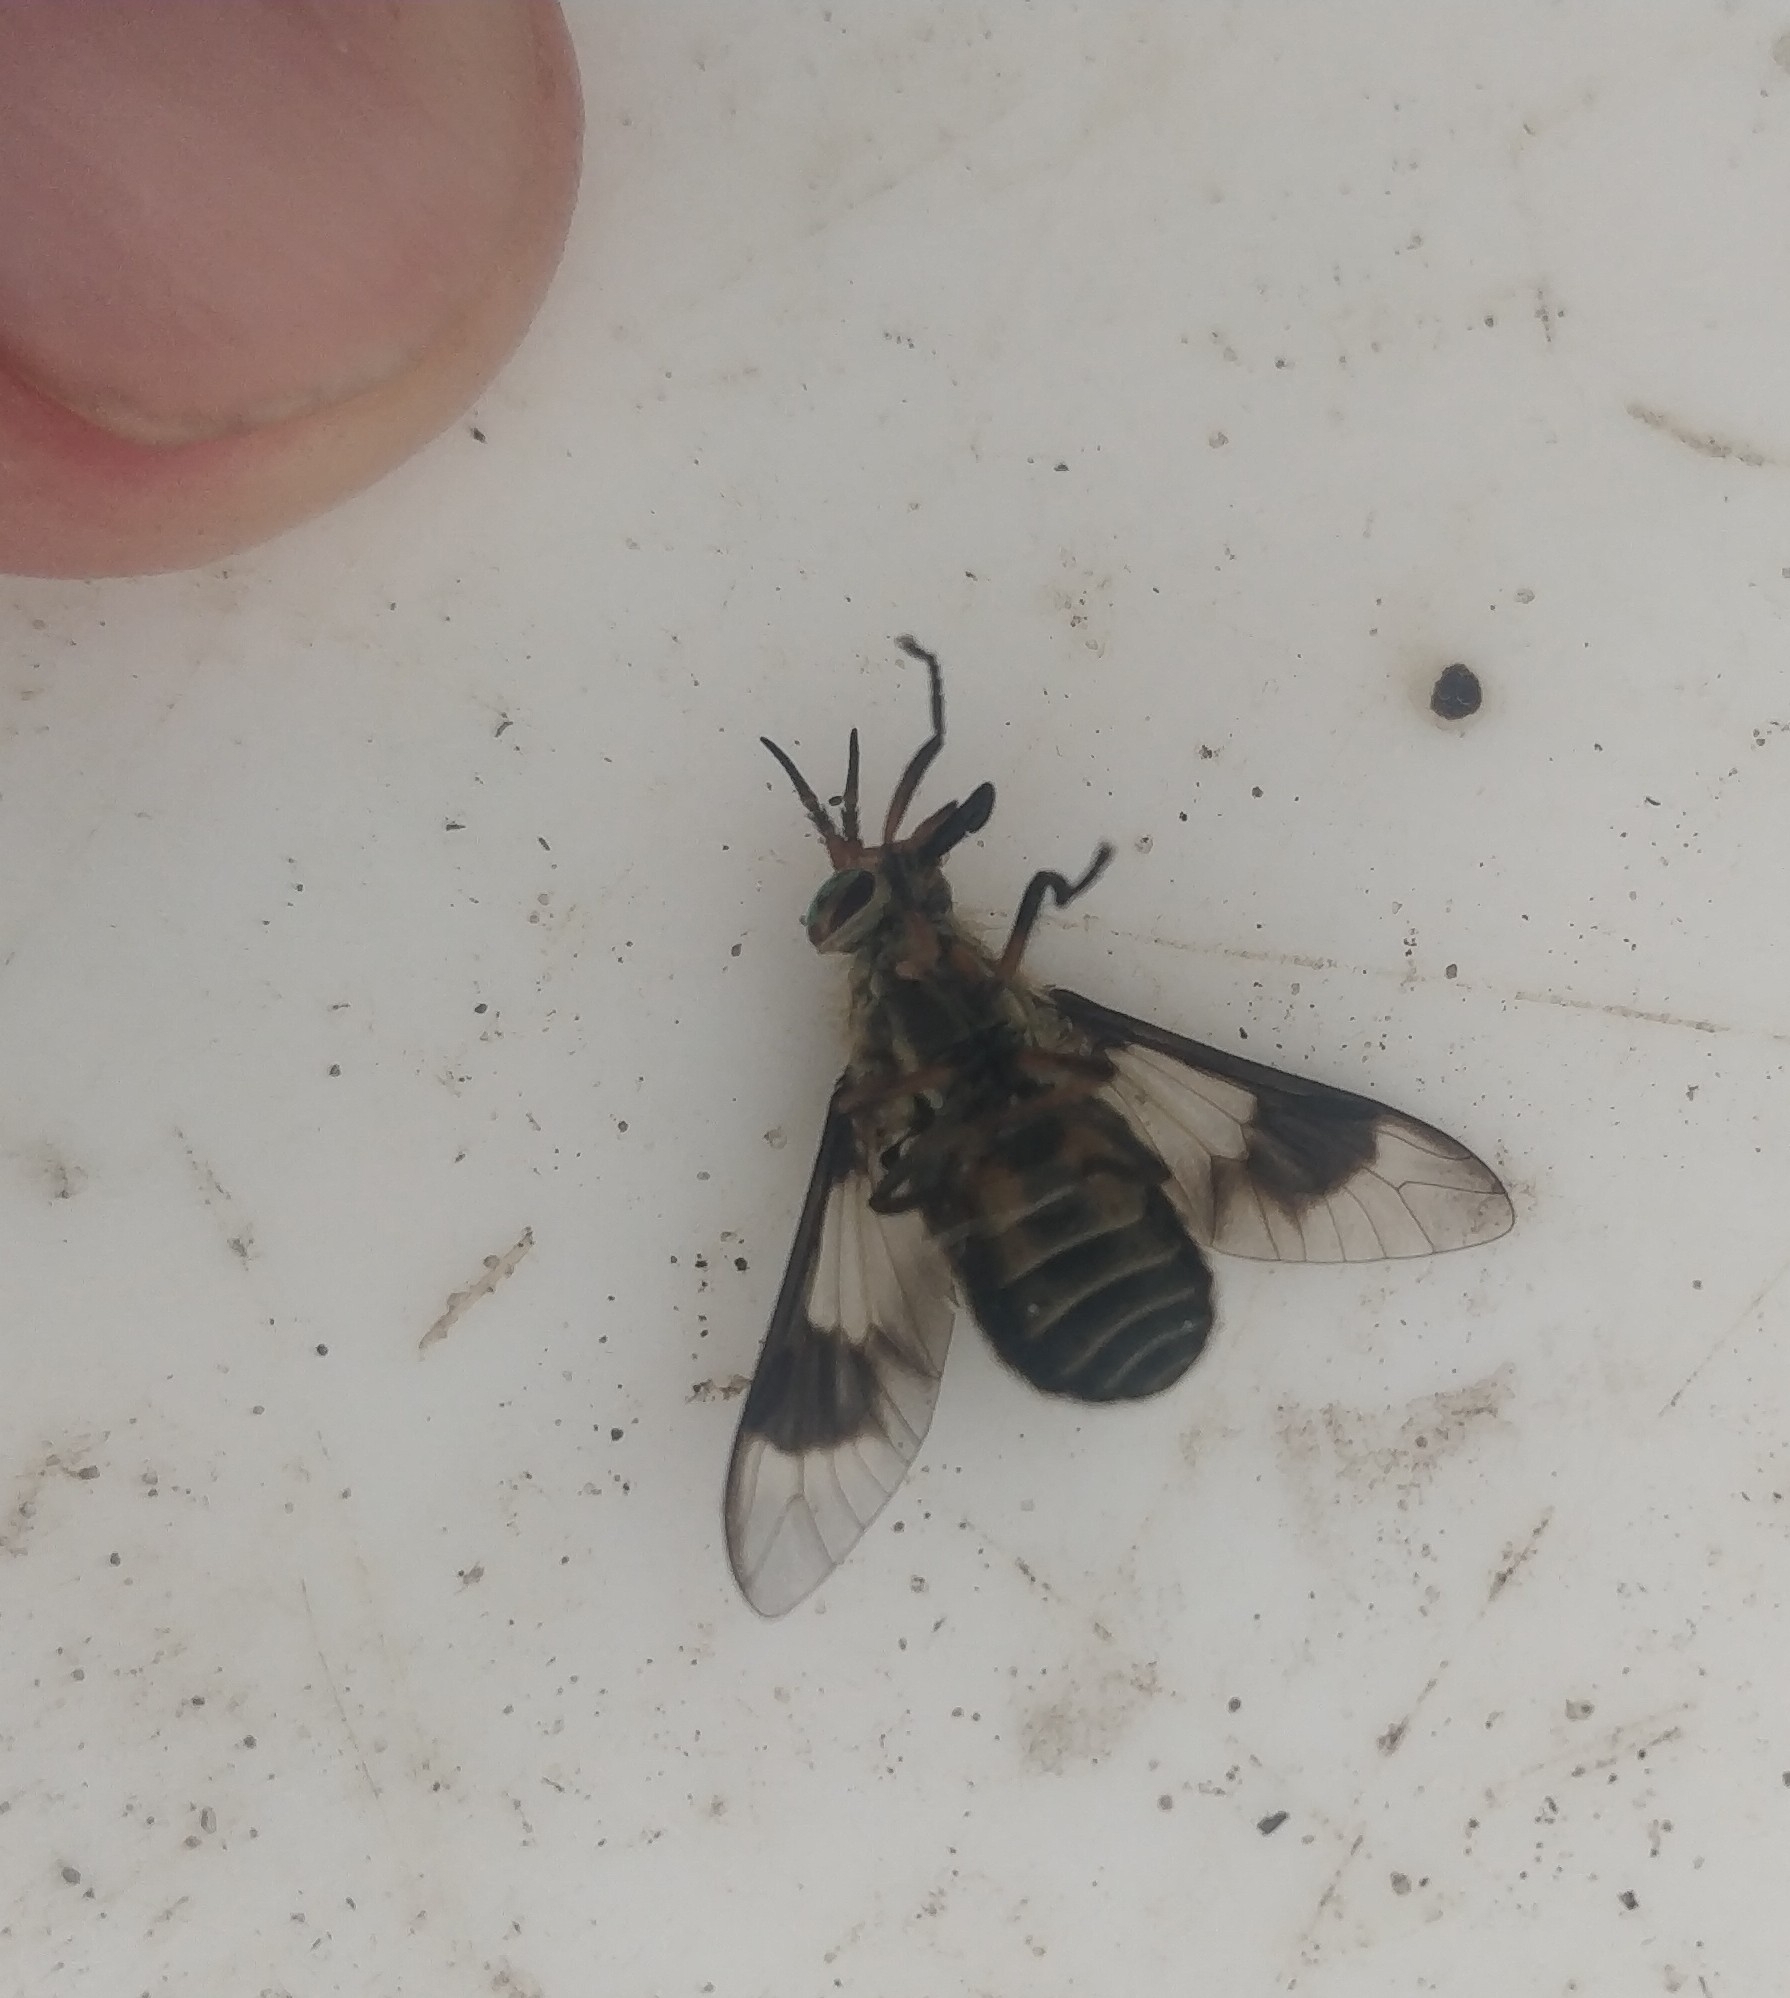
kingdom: Animalia
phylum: Arthropoda
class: Insecta
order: Diptera
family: Tabanidae
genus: Chrysops
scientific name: Chrysops aestuans
